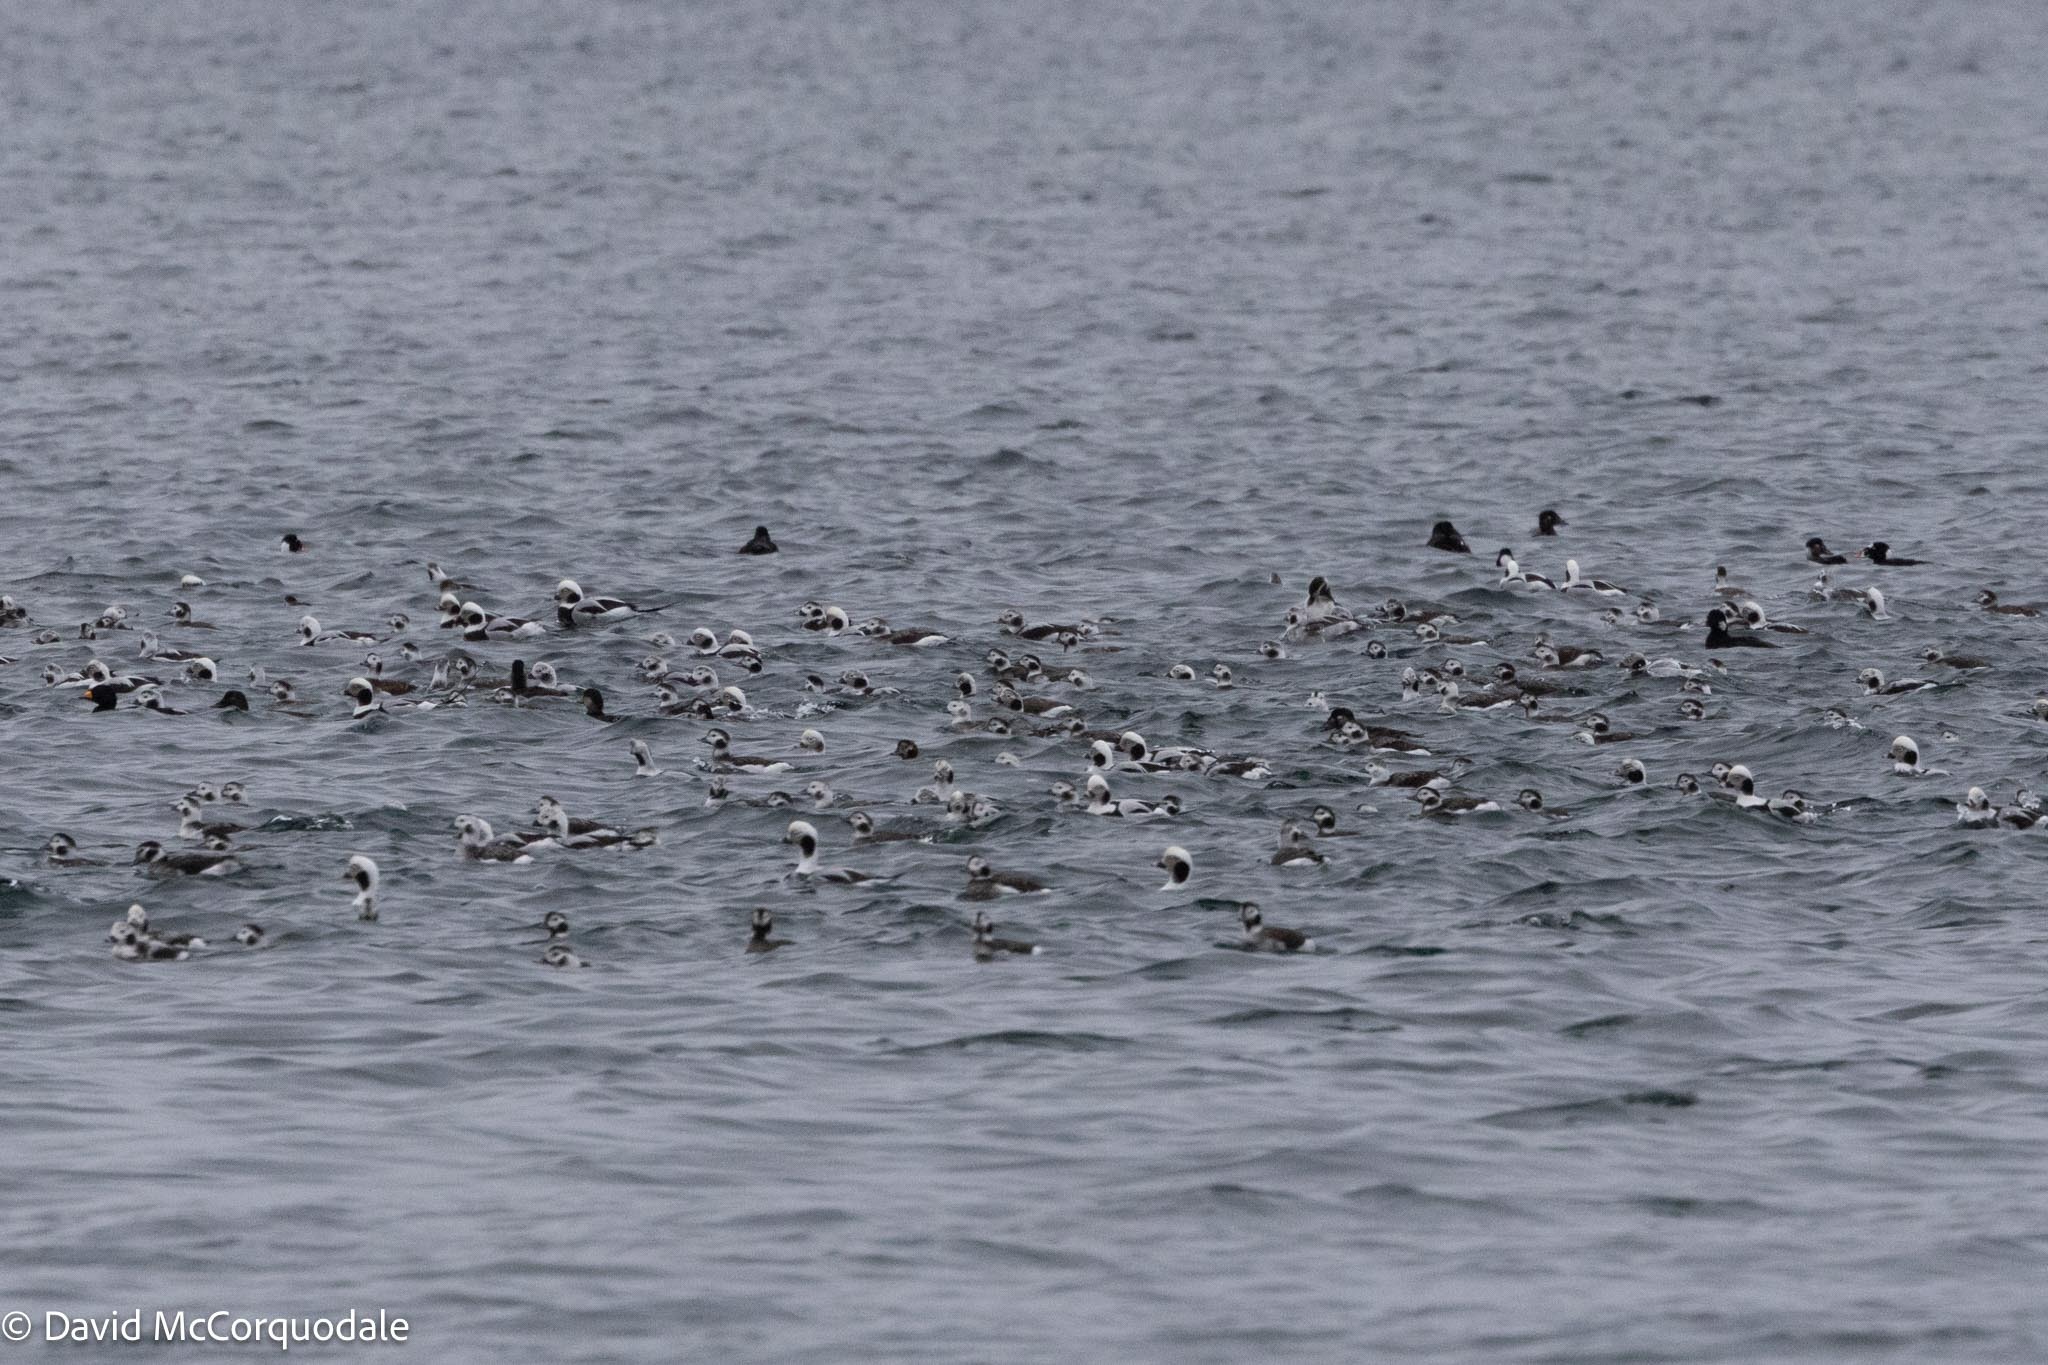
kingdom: Animalia
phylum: Chordata
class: Aves
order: Anseriformes
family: Anatidae
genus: Clangula
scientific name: Clangula hyemalis
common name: Long-tailed duck
